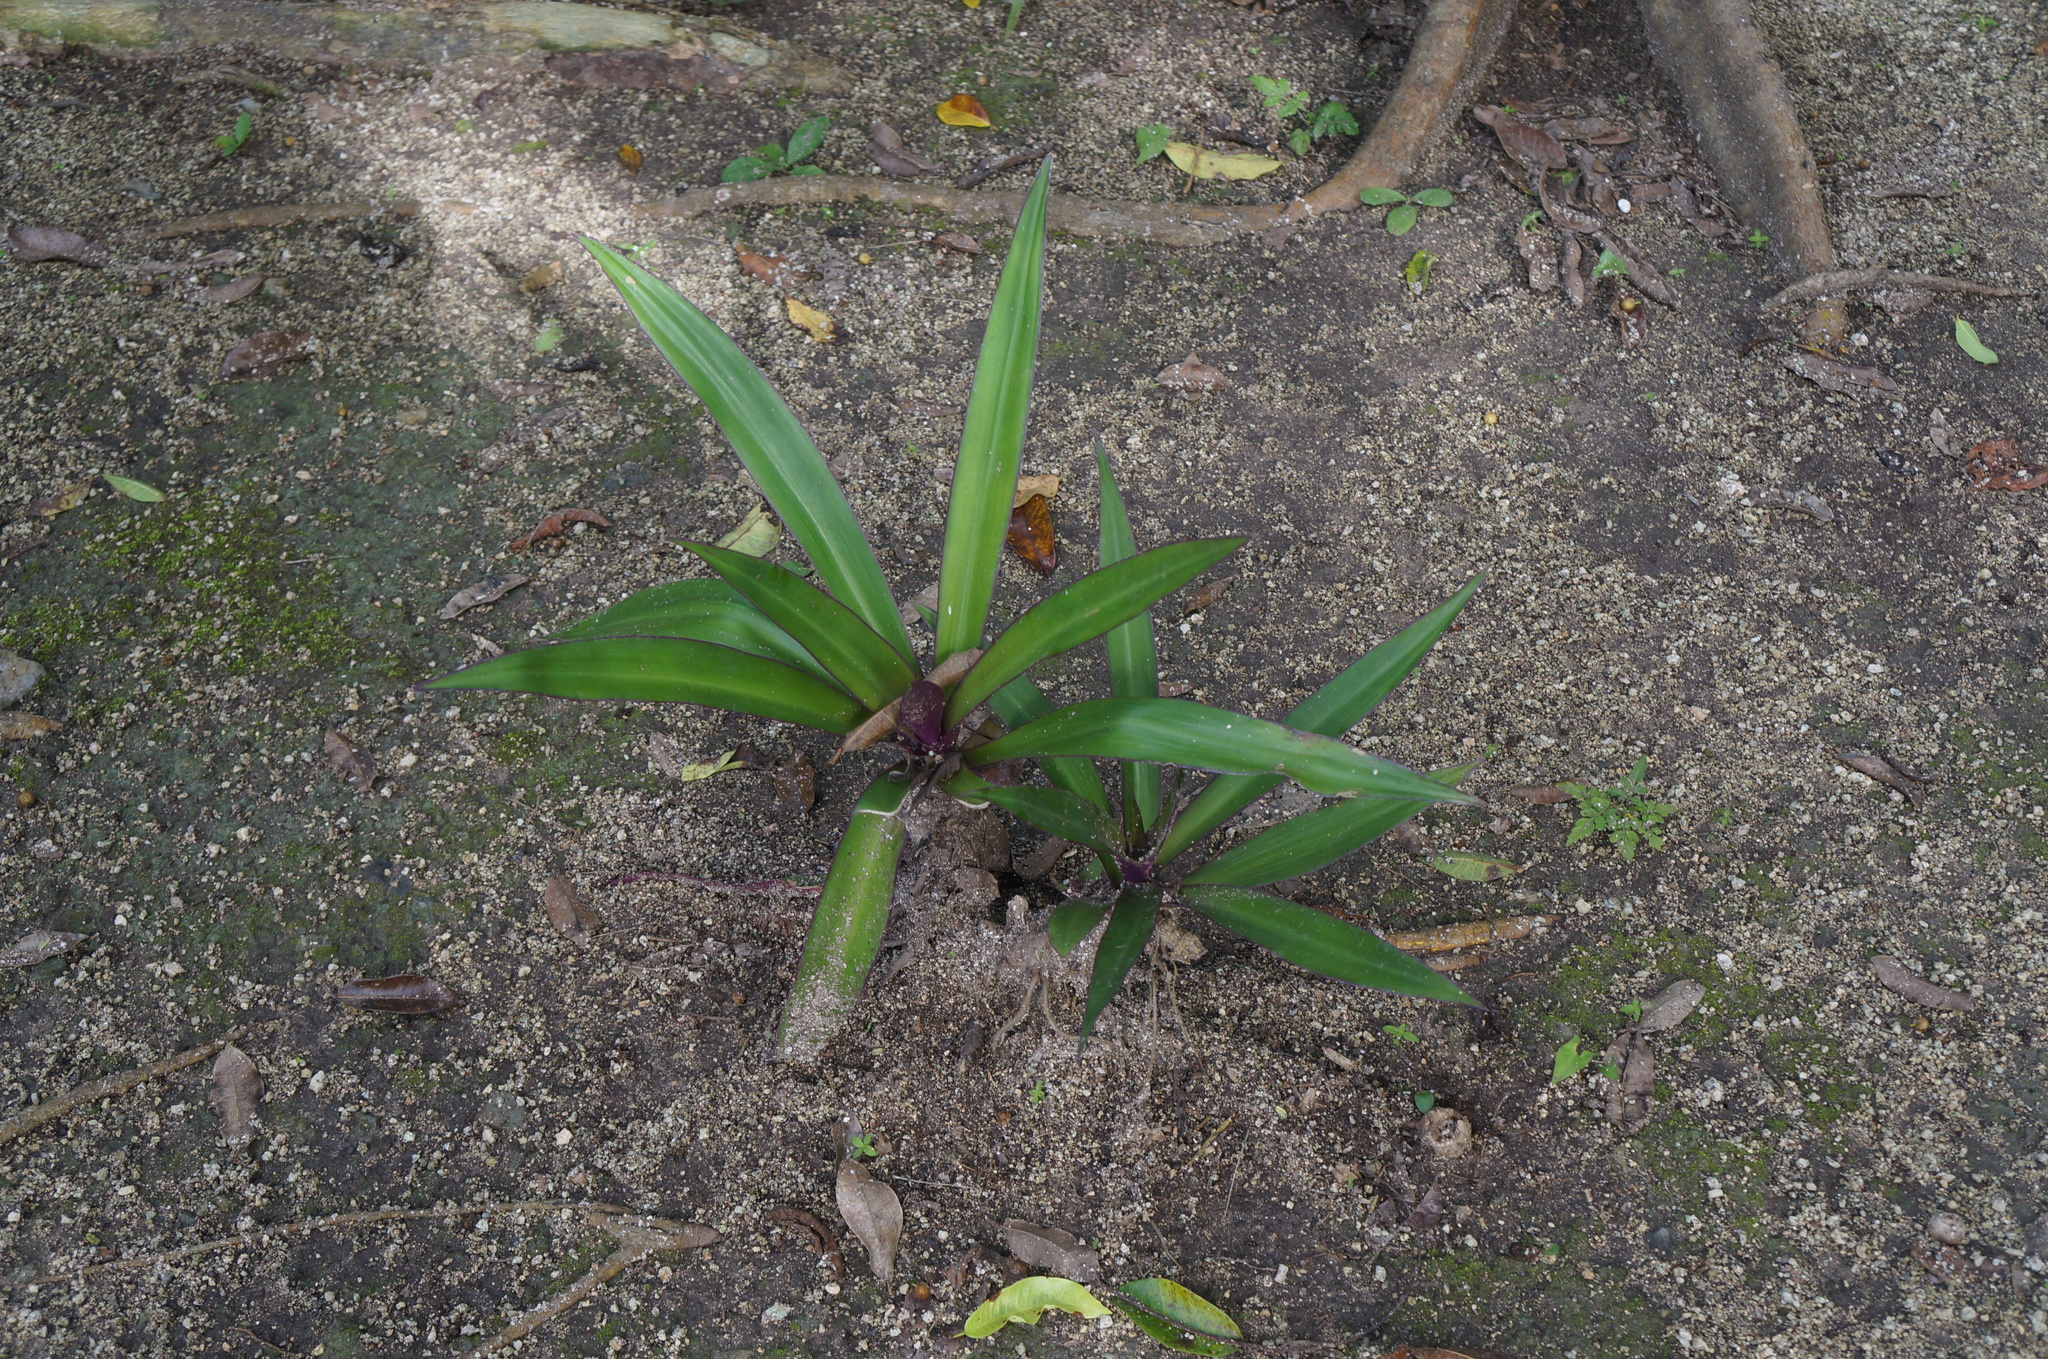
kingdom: Plantae
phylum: Tracheophyta
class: Liliopsida
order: Commelinales
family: Commelinaceae
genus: Tradescantia
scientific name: Tradescantia spathacea
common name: Boatlily
